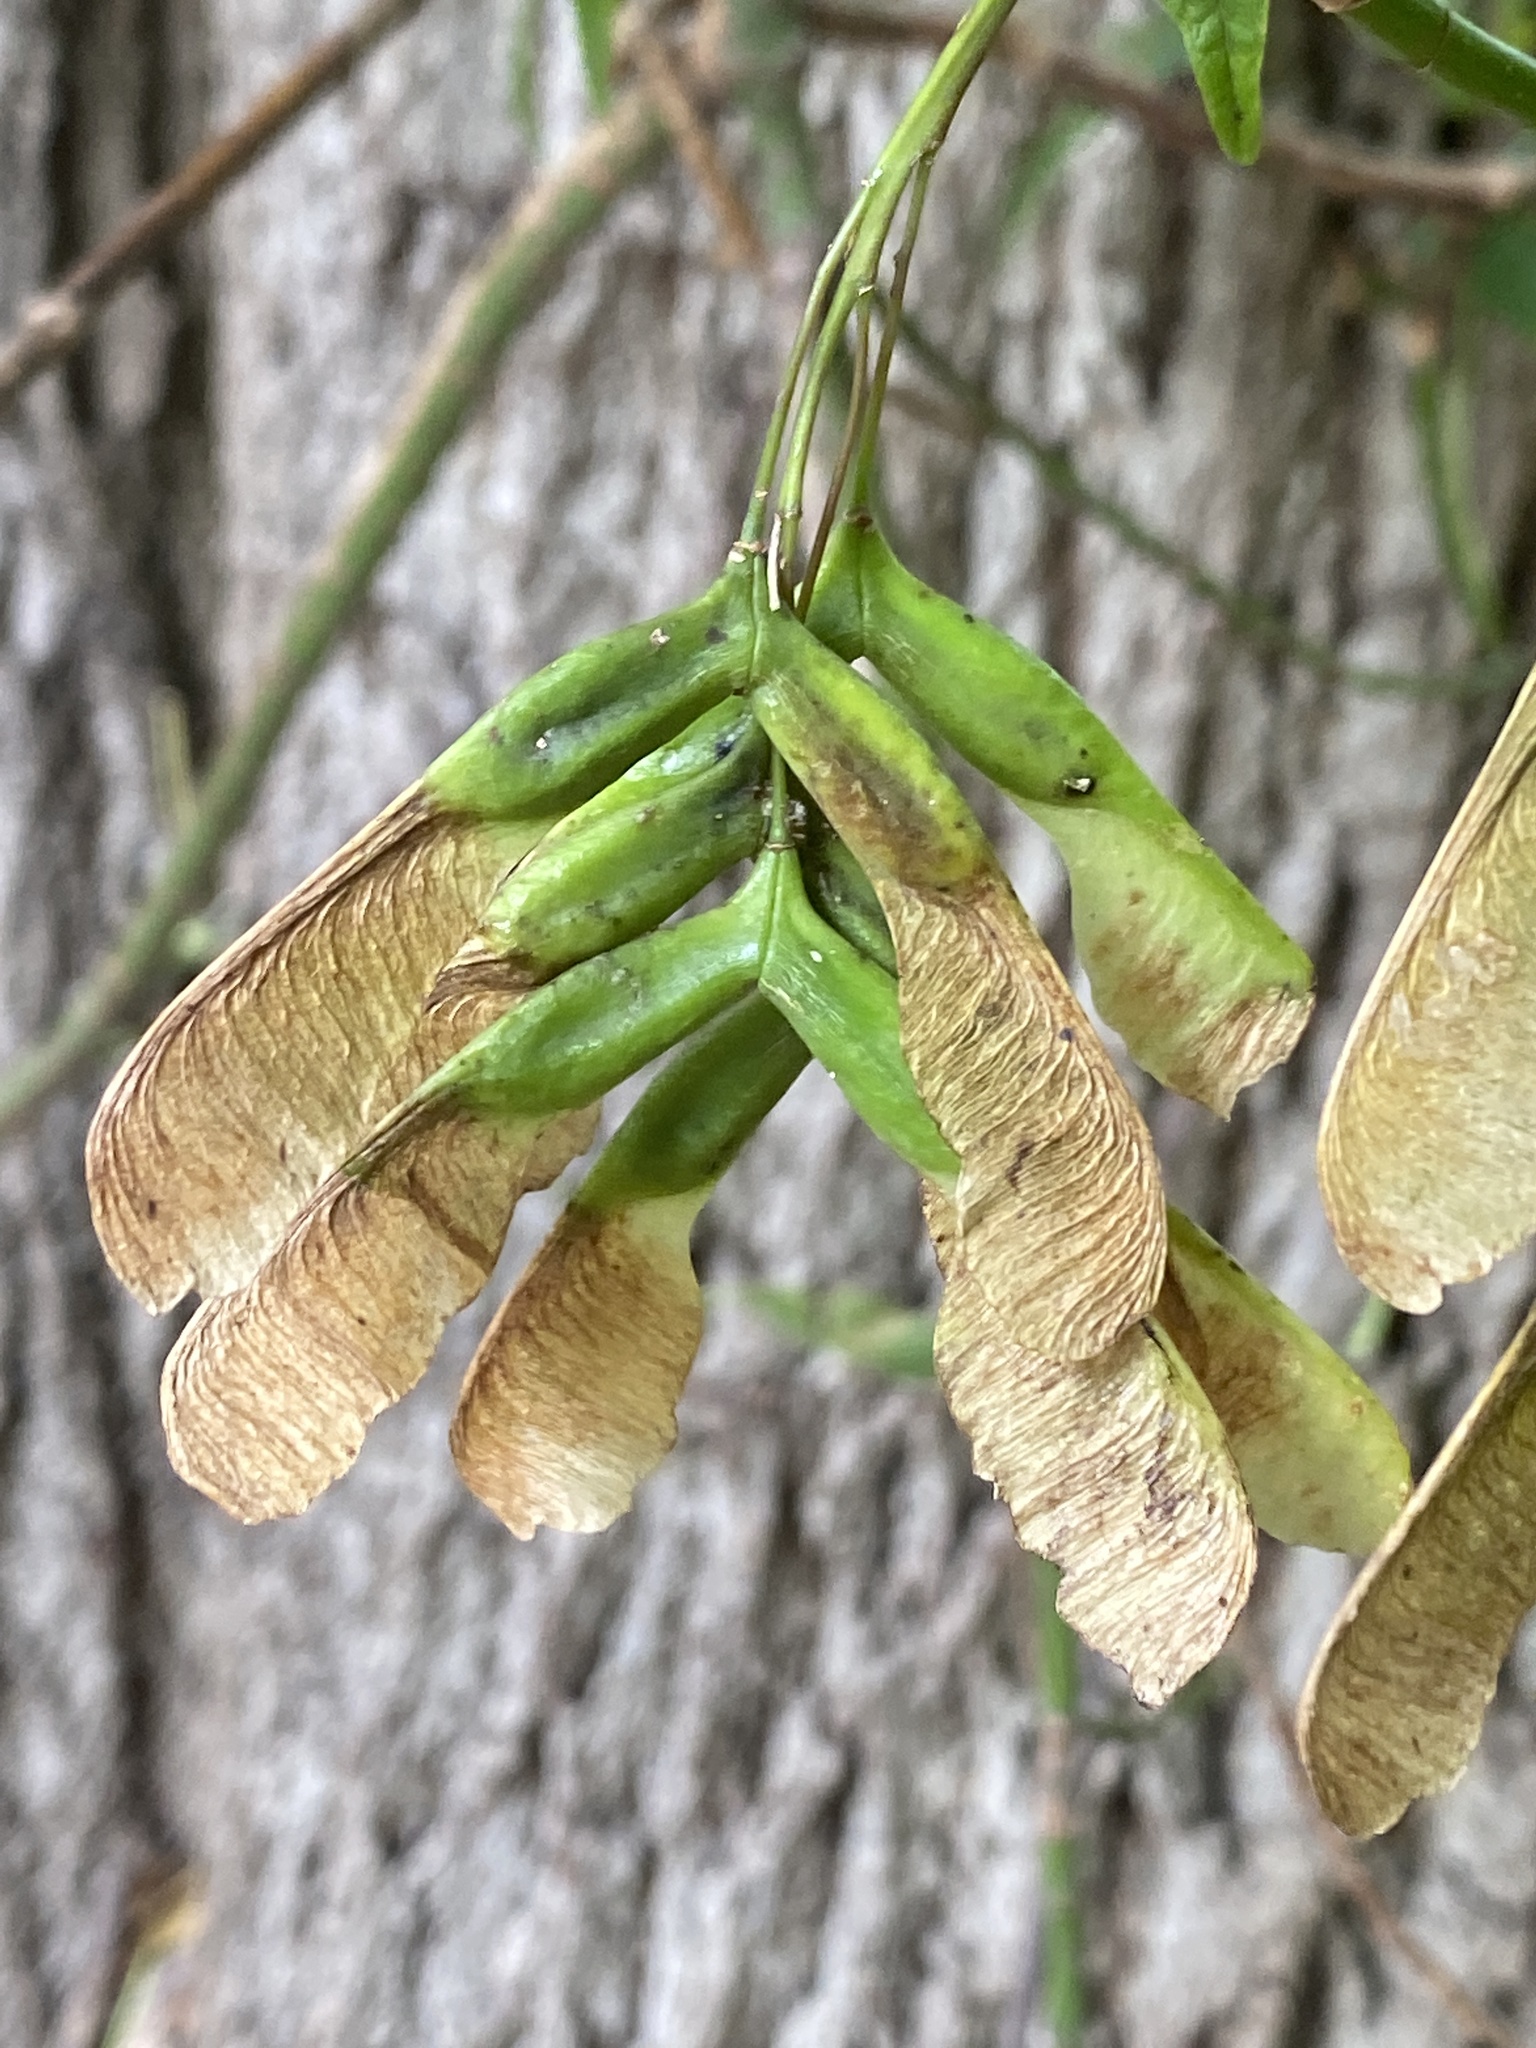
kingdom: Plantae
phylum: Tracheophyta
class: Magnoliopsida
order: Sapindales
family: Sapindaceae
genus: Acer
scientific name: Acer negundo
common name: Ashleaf maple
